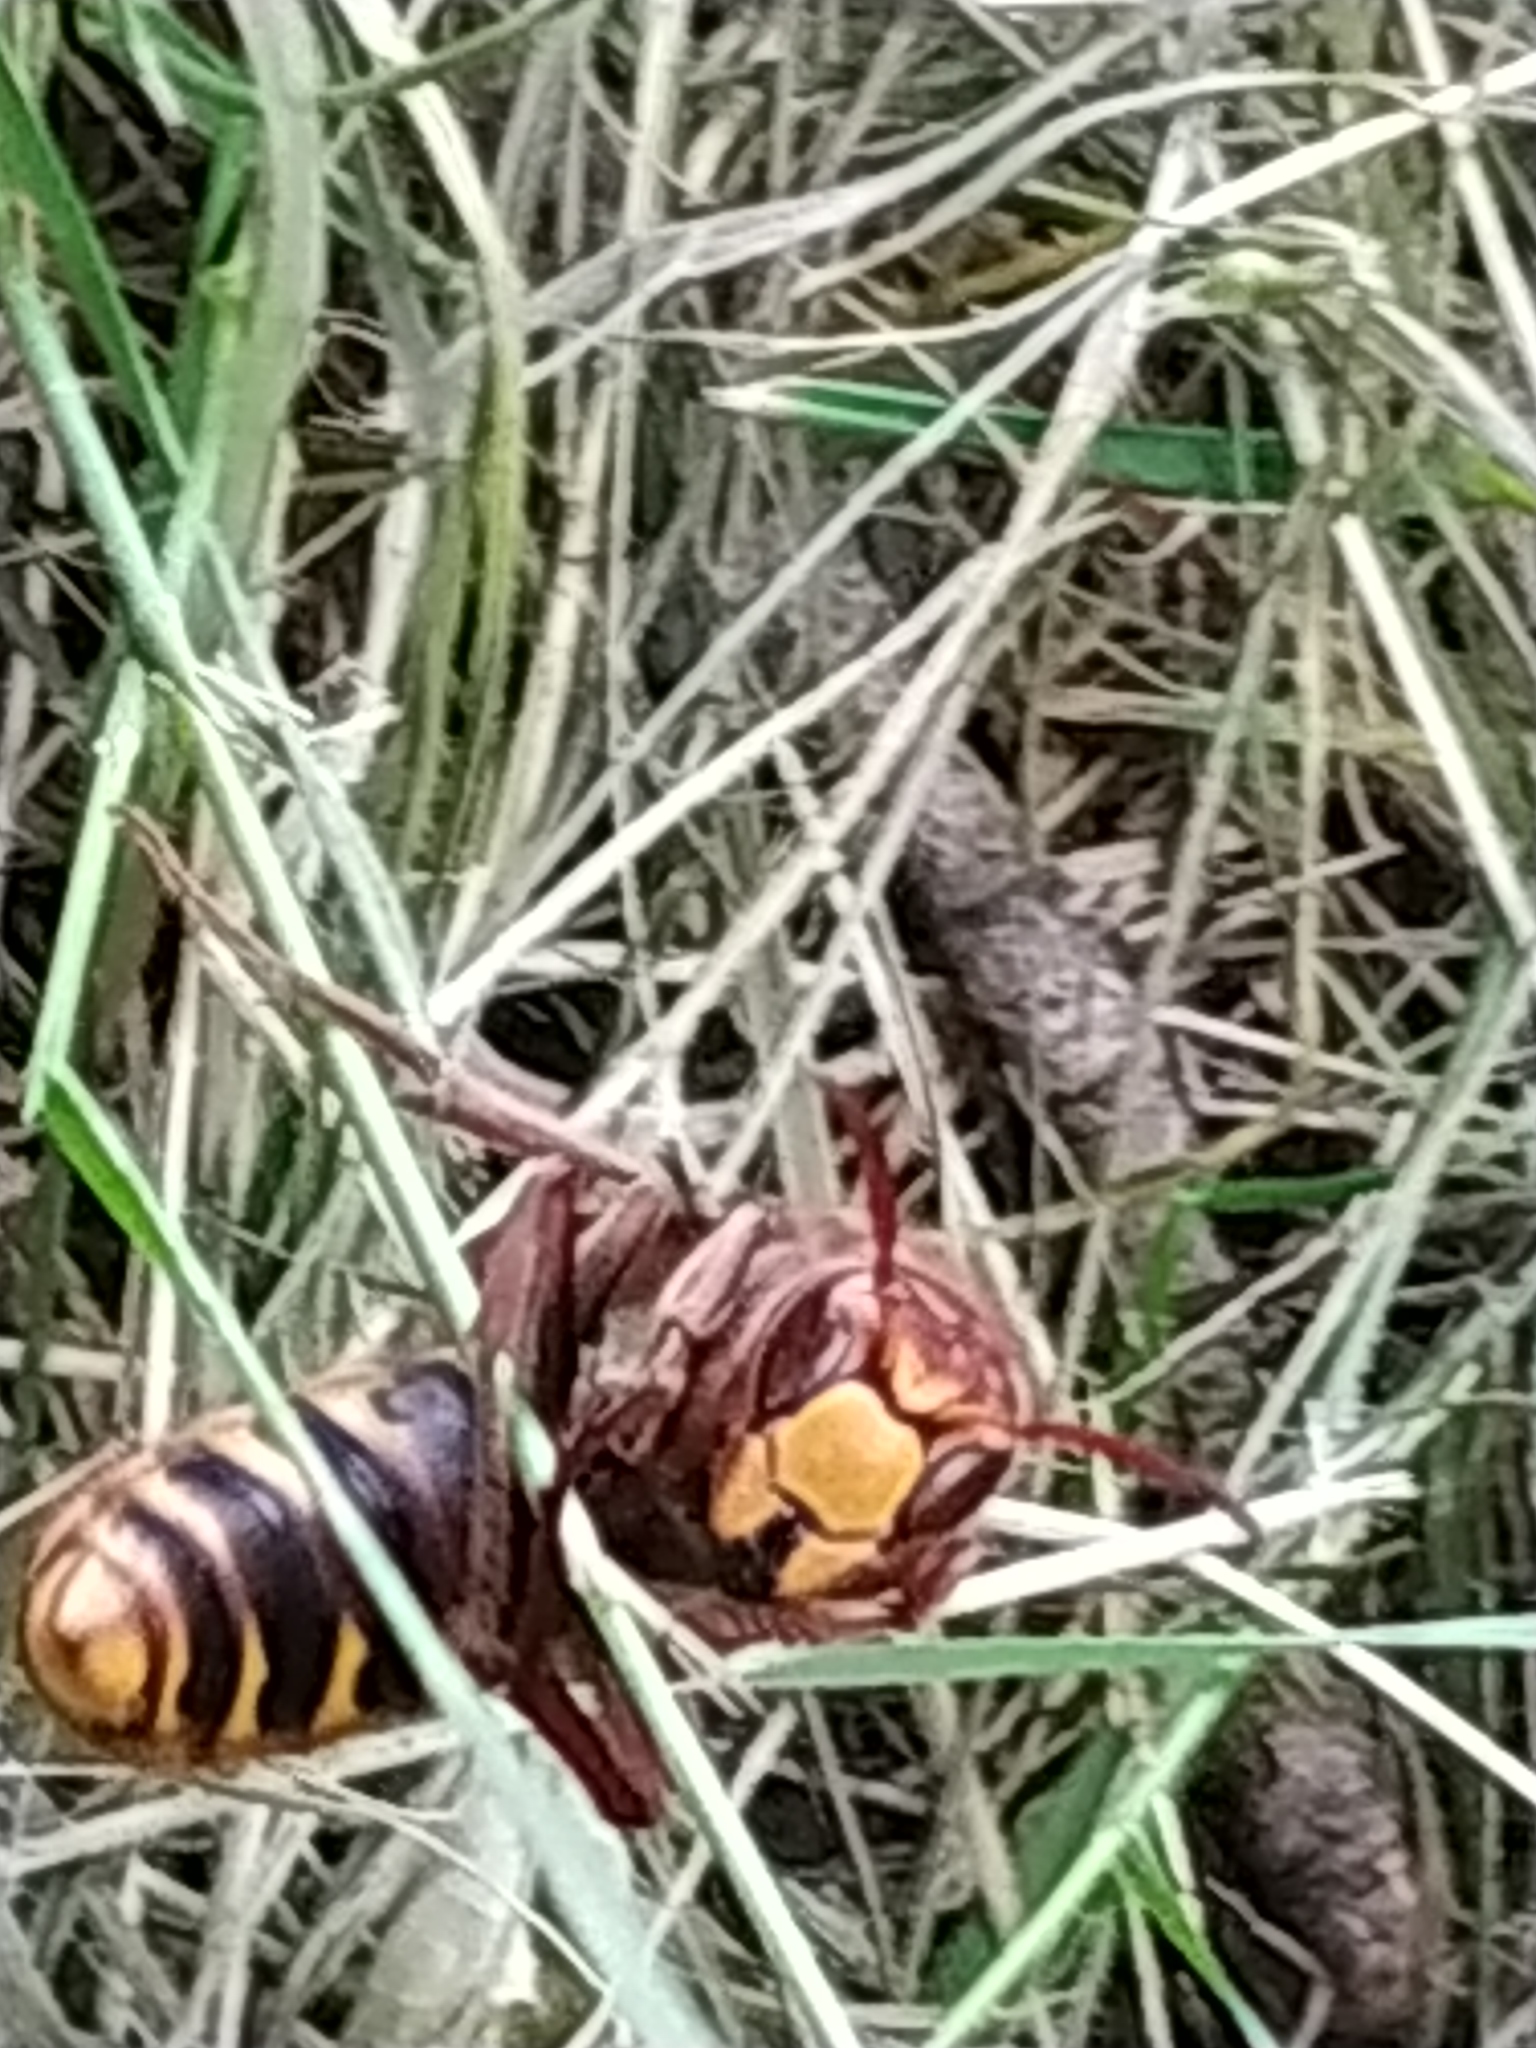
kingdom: Animalia
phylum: Arthropoda
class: Insecta
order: Hymenoptera
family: Vespidae
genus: Vespa
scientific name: Vespa crabro
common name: Hornet
